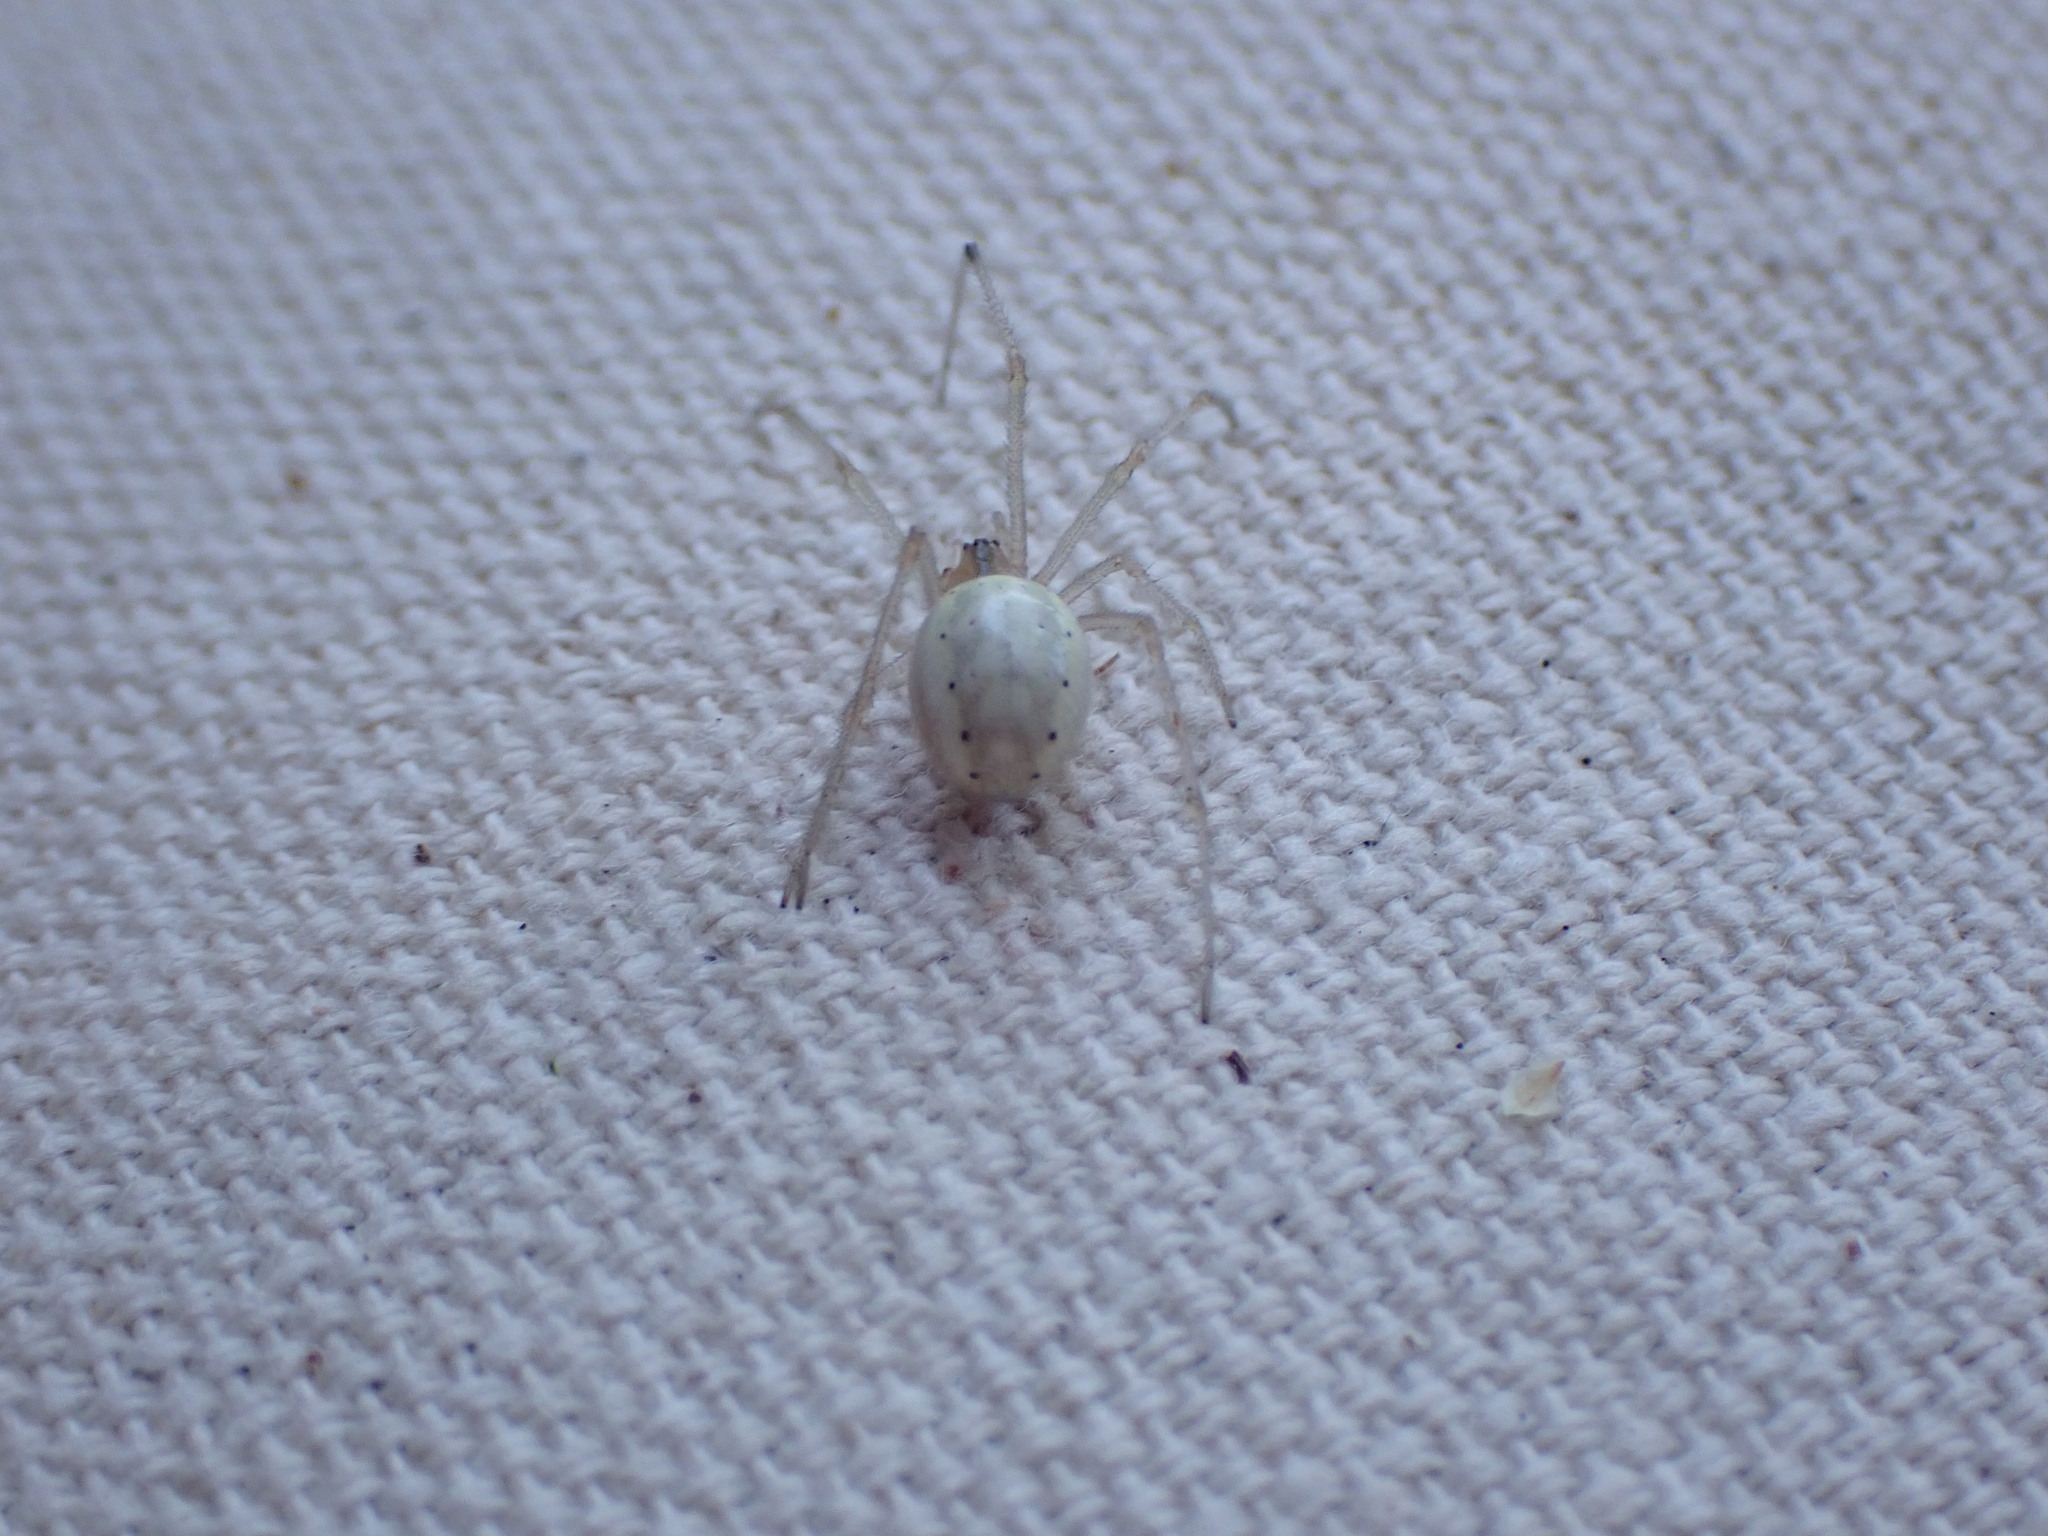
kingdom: Animalia
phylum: Arthropoda
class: Arachnida
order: Araneae
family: Theridiidae
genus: Enoplognatha
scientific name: Enoplognatha ovata
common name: Common candy-striped spider
